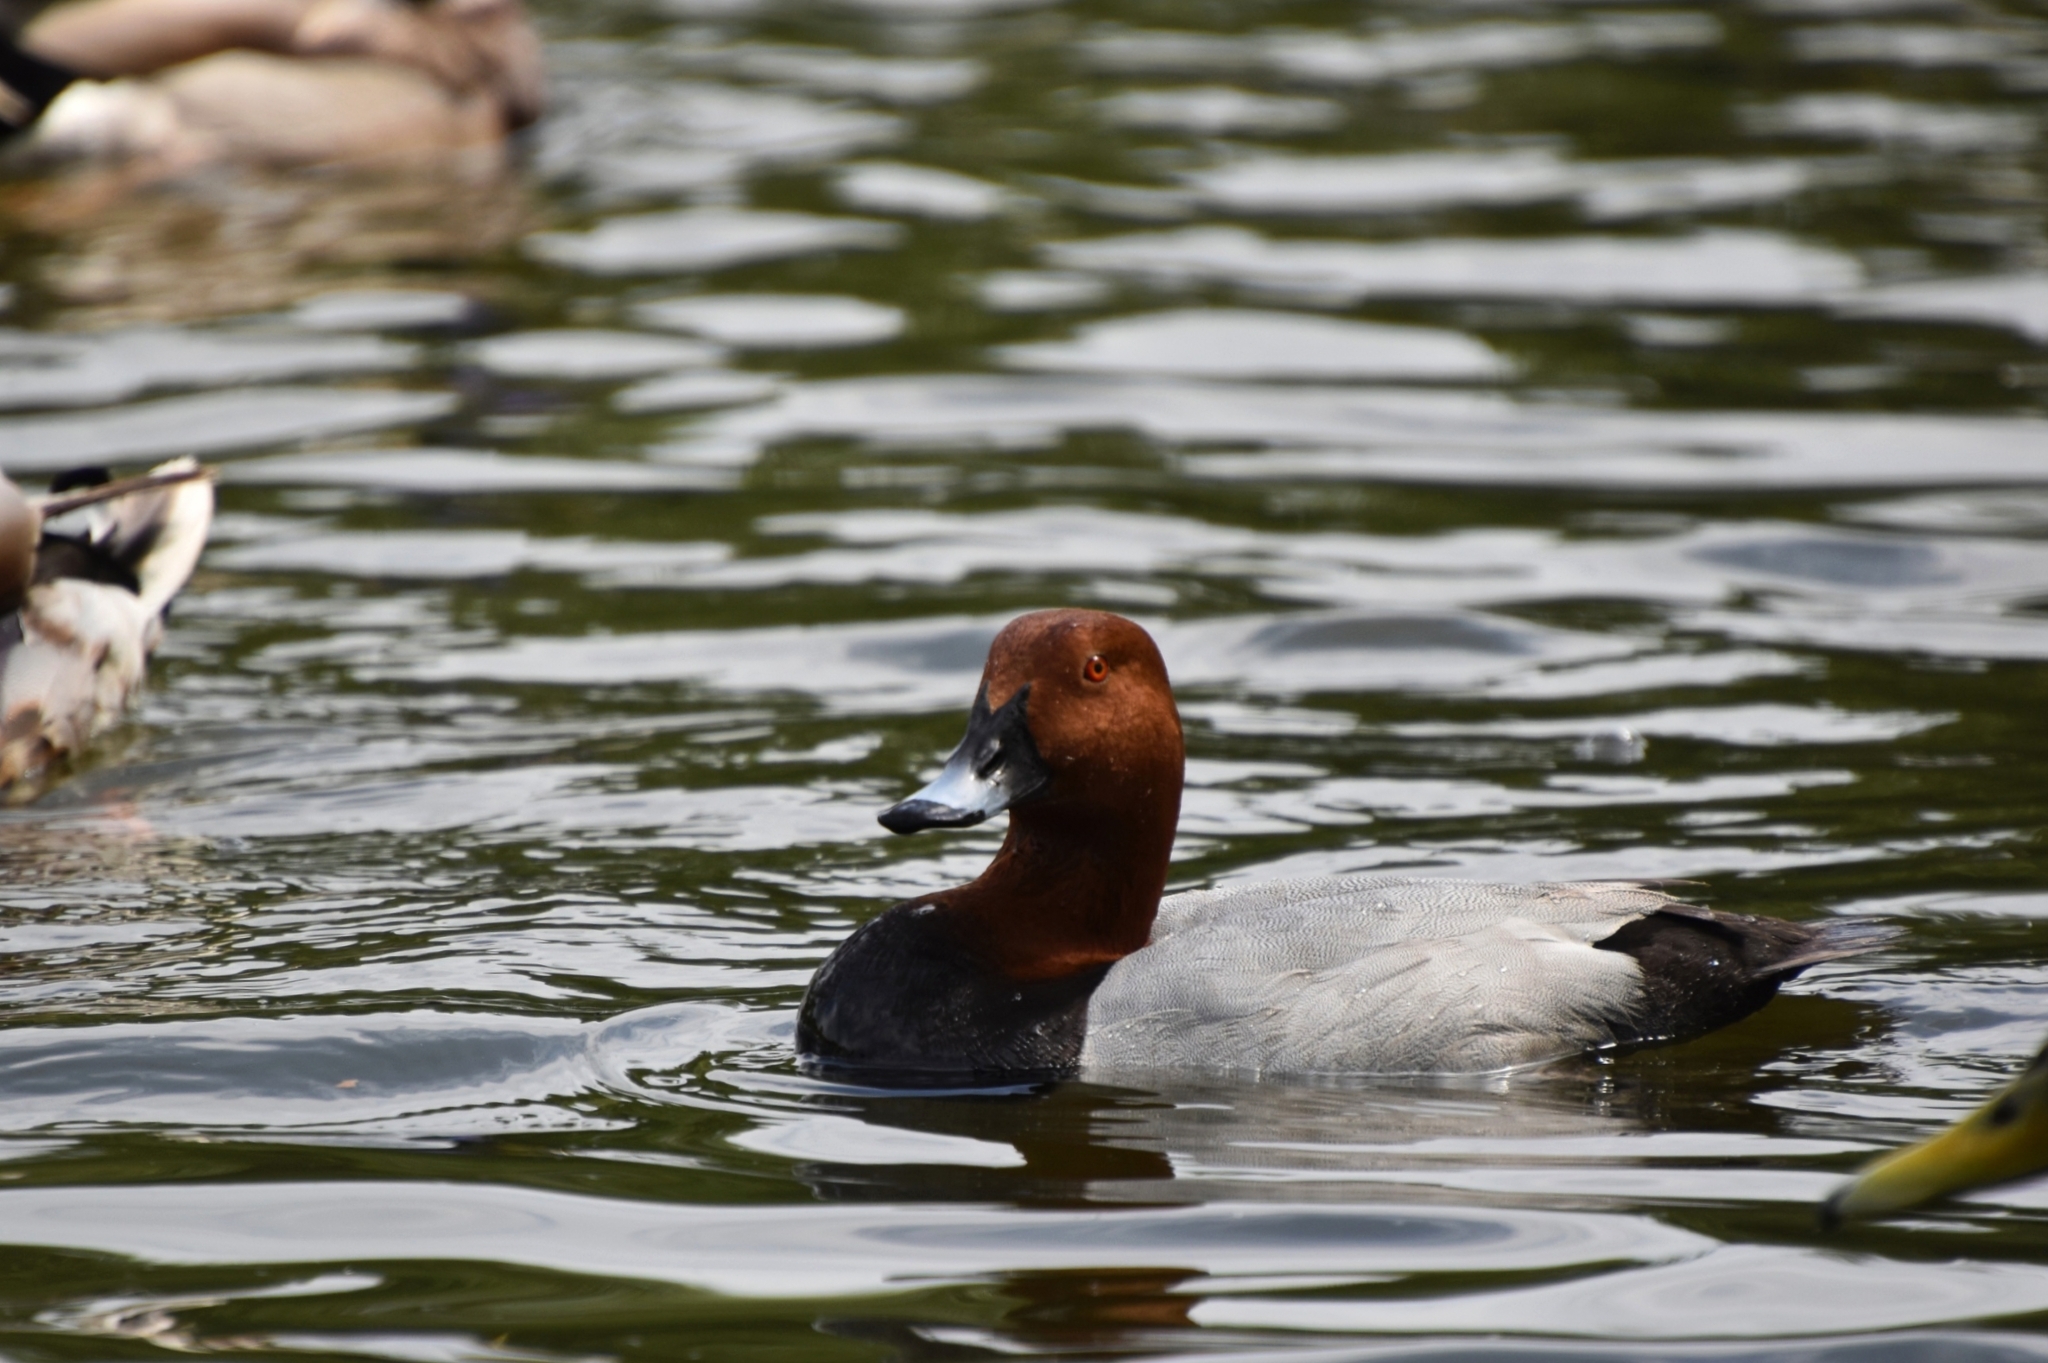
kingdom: Animalia
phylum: Chordata
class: Aves
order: Anseriformes
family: Anatidae
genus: Aythya
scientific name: Aythya ferina
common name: Common pochard
